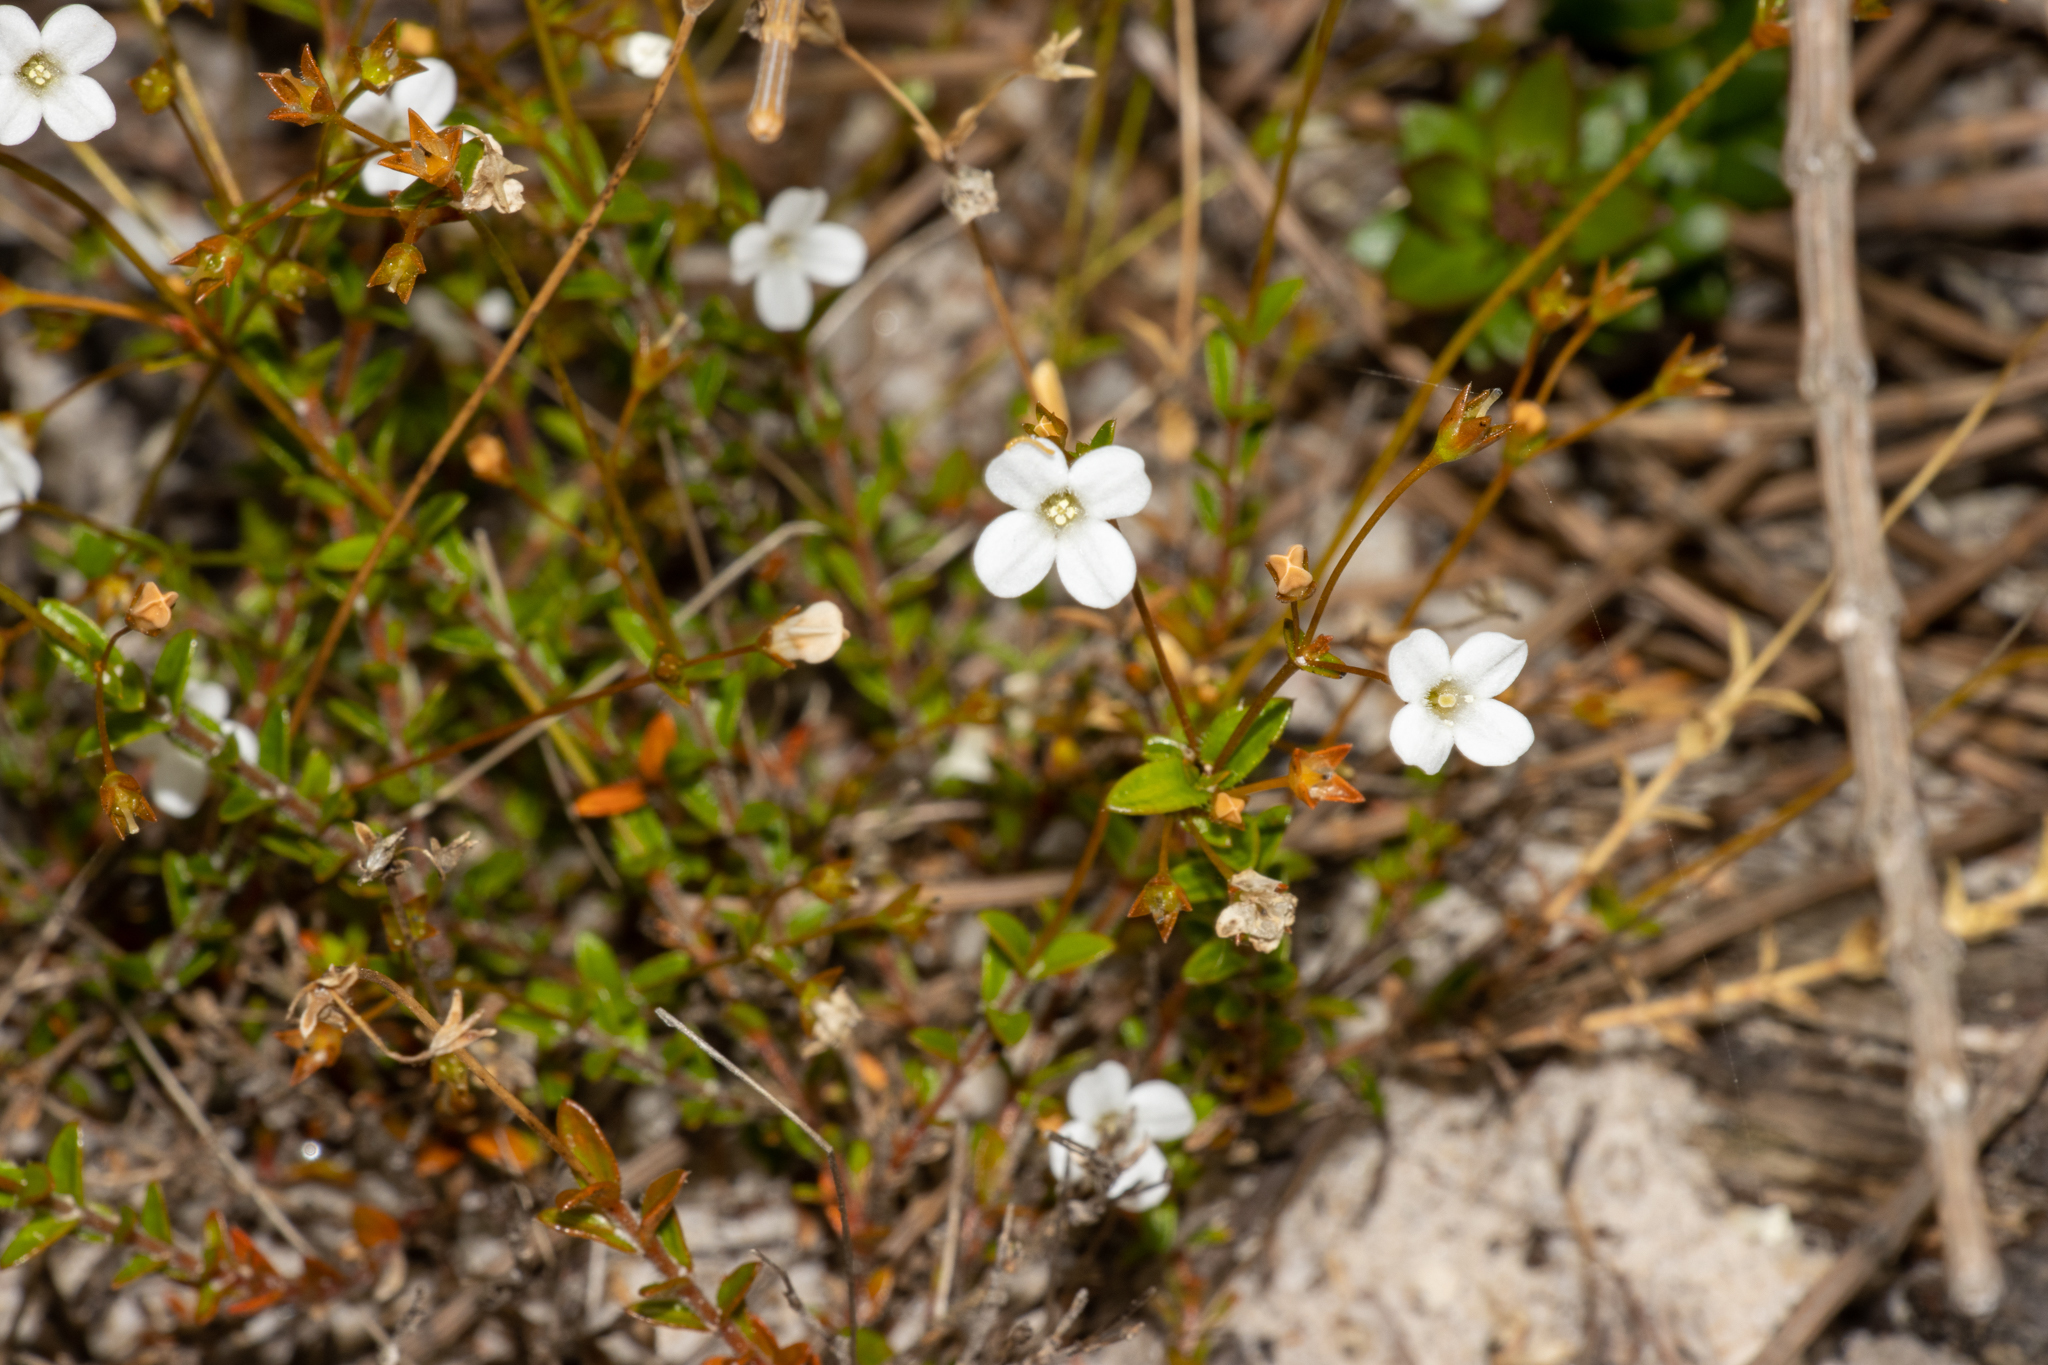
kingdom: Plantae
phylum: Tracheophyta
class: Magnoliopsida
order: Gentianales
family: Loganiaceae
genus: Mitrasacme
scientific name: Mitrasacme polymorpha
